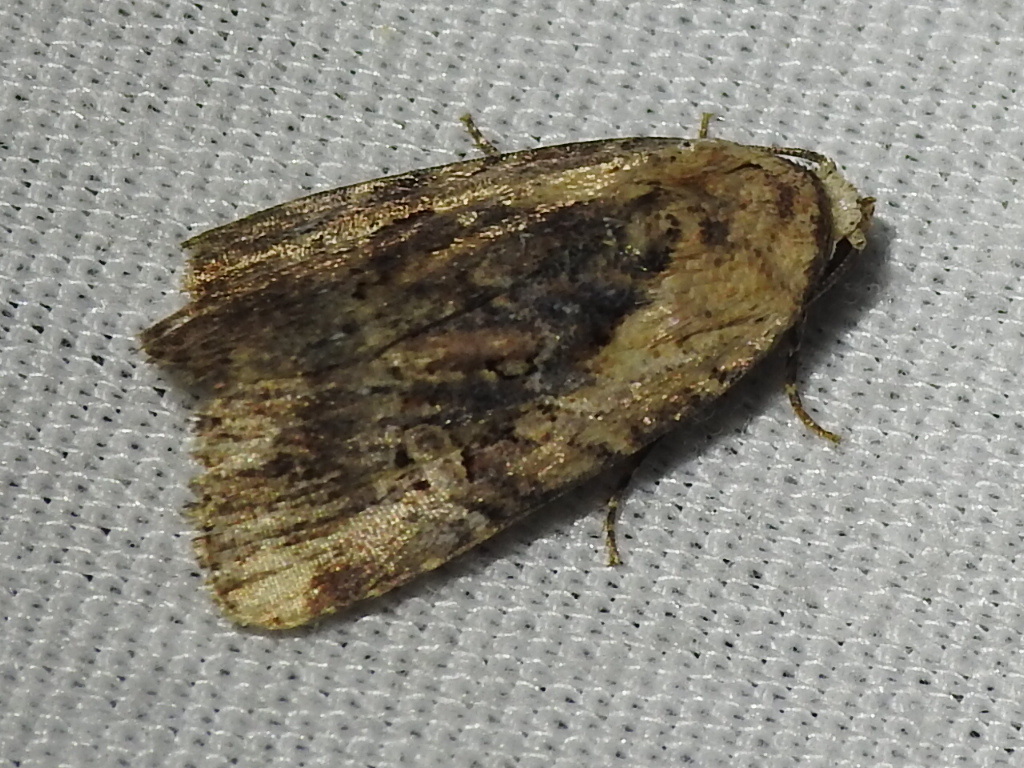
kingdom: Animalia
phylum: Arthropoda
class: Insecta
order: Lepidoptera
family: Noctuidae
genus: Elaphria
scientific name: Elaphria chalcedonia
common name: Chalcedony midget
